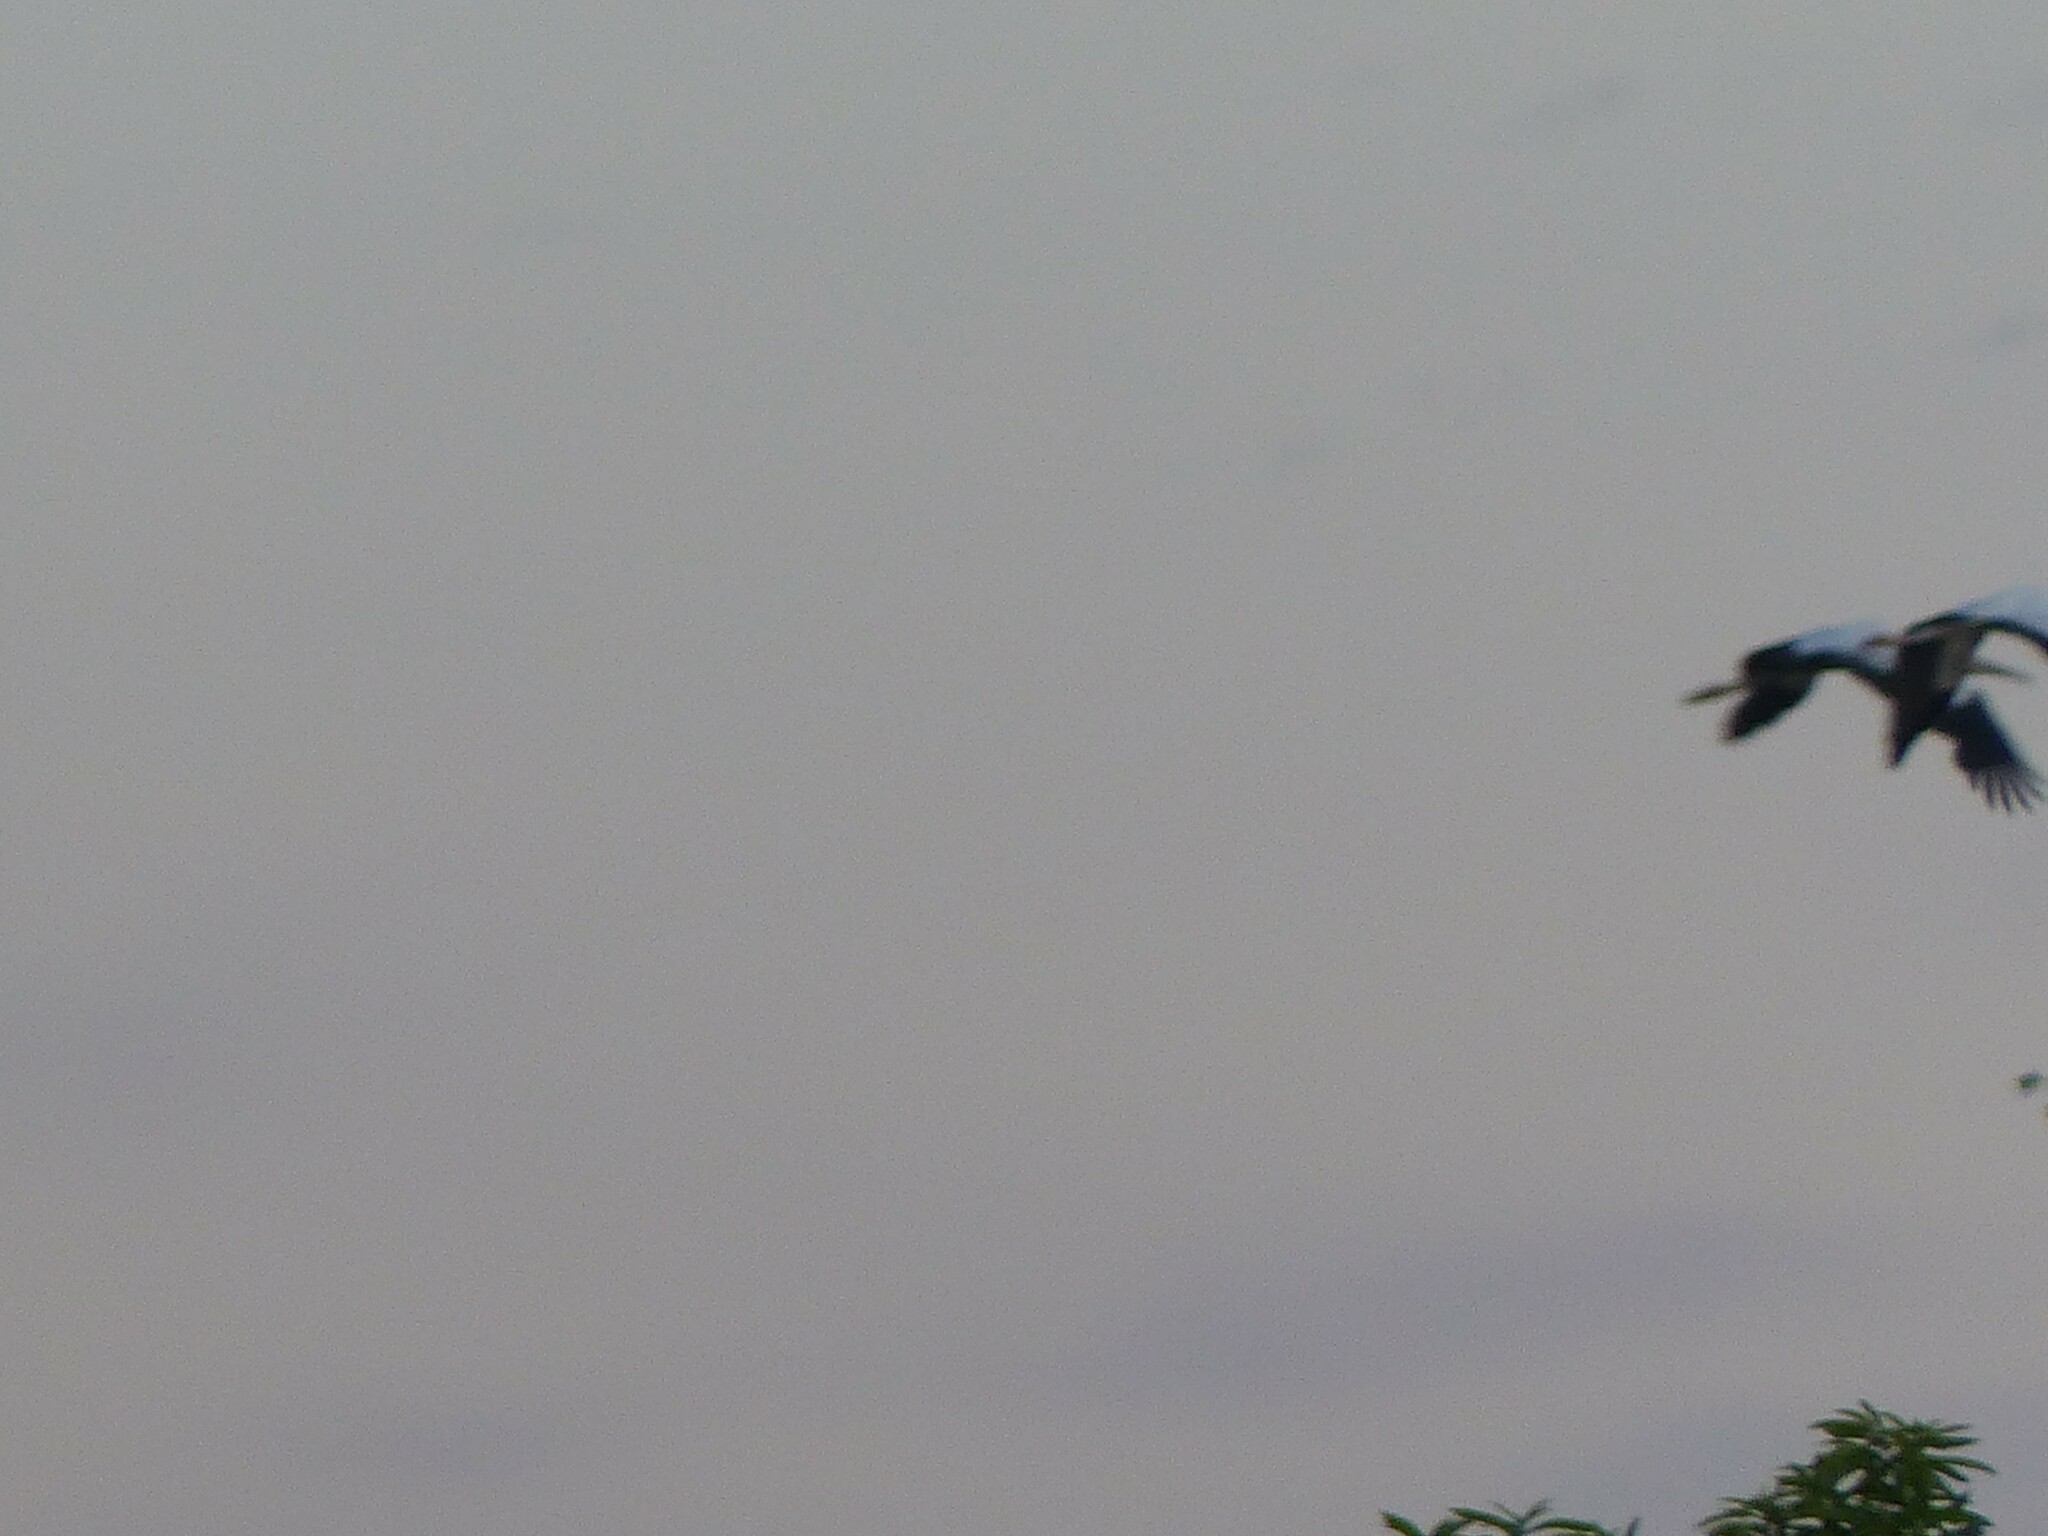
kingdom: Animalia
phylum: Chordata
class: Aves
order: Ciconiiformes
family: Ciconiidae
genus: Mycteria
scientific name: Mycteria americana
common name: Wood stork
